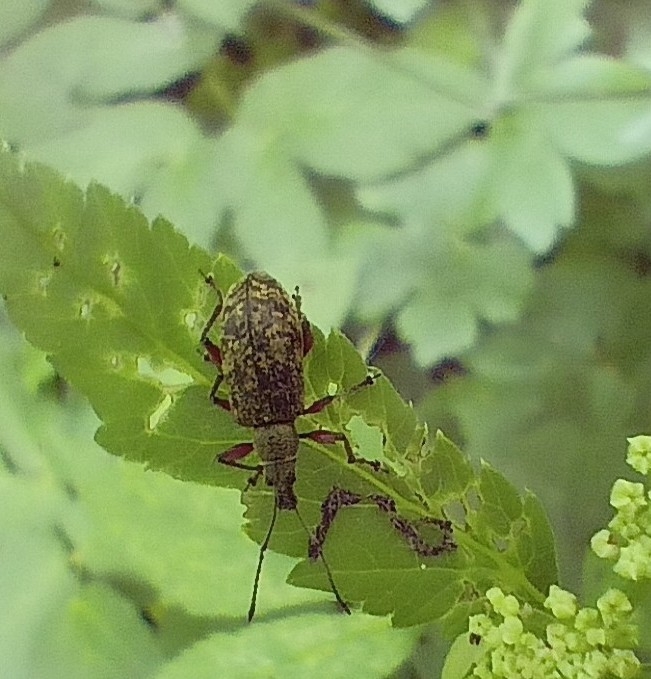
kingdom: Animalia
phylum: Arthropoda
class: Insecta
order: Coleoptera
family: Curculionidae
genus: Phyllobius
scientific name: Phyllobius glaucus
